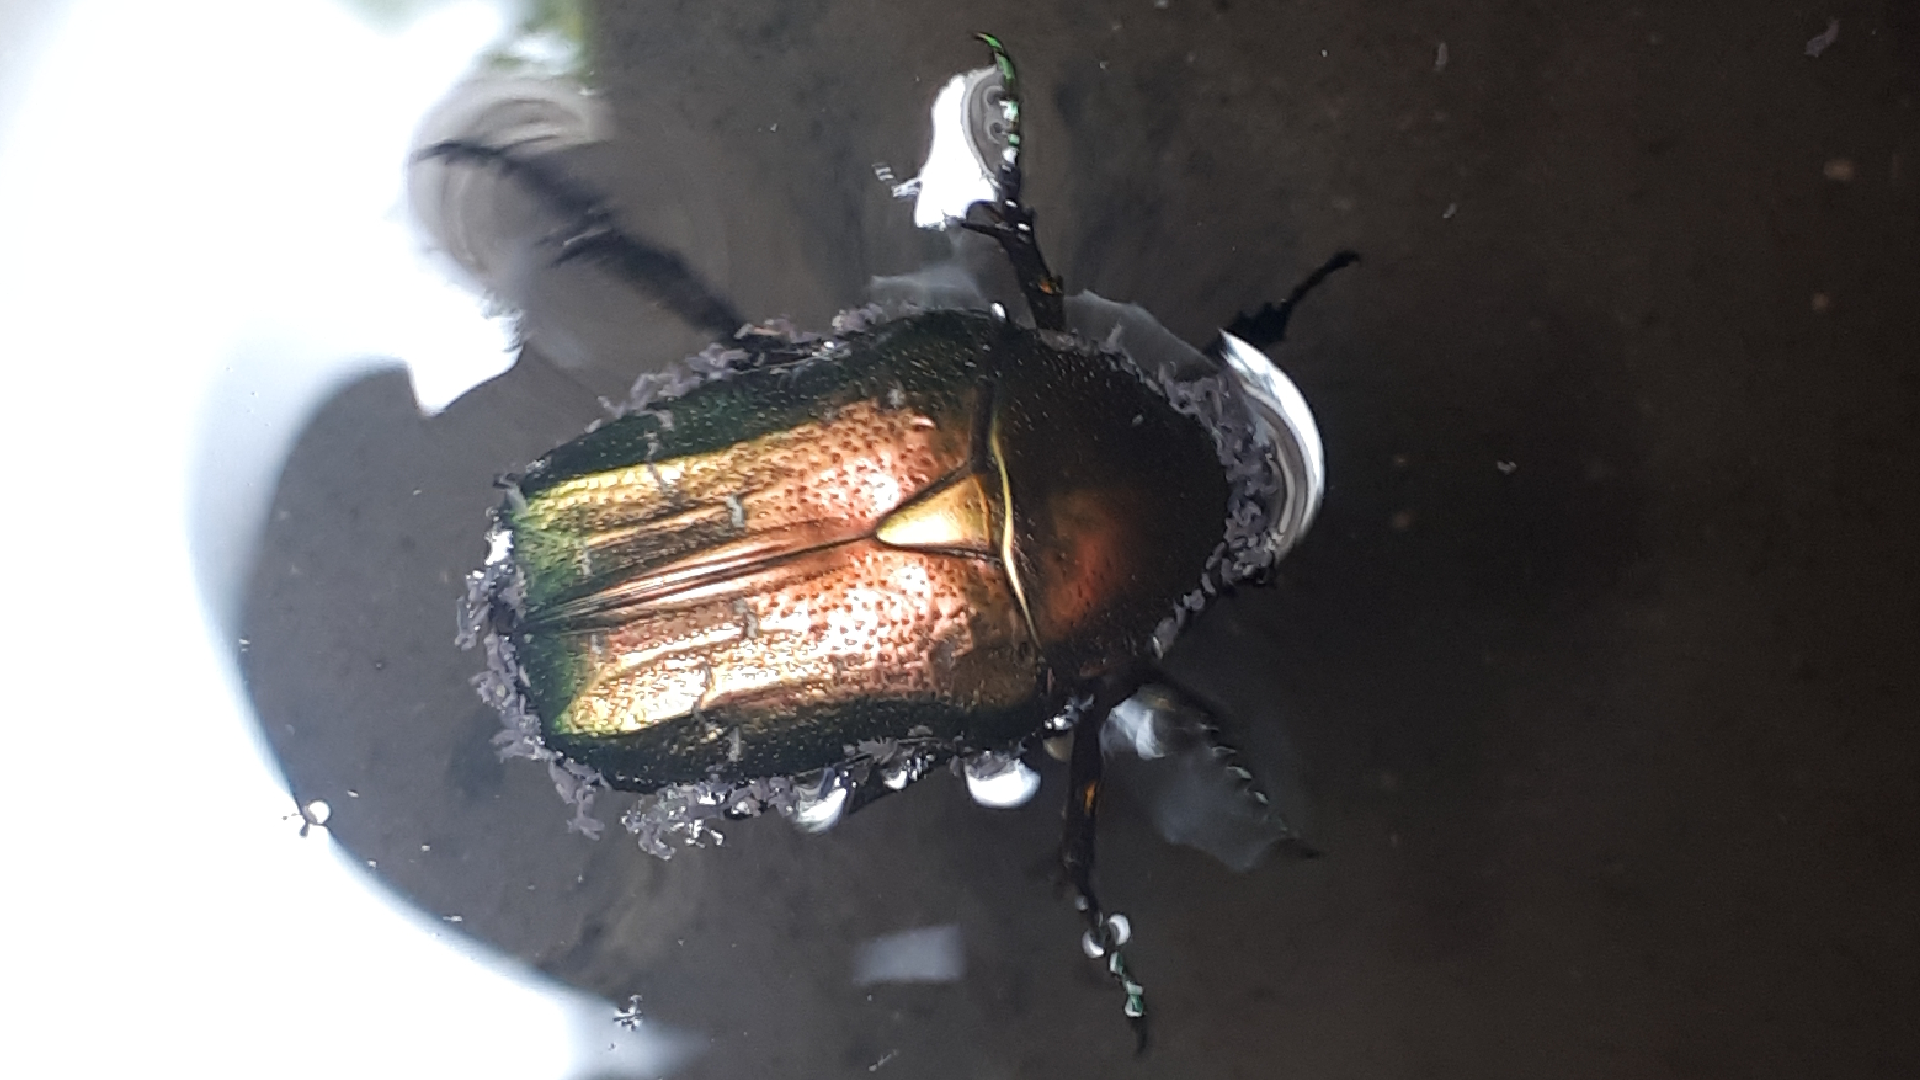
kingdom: Animalia
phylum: Arthropoda
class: Insecta
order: Coleoptera
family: Scarabaeidae
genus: Cetonia
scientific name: Cetonia aurata
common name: Rose chafer
